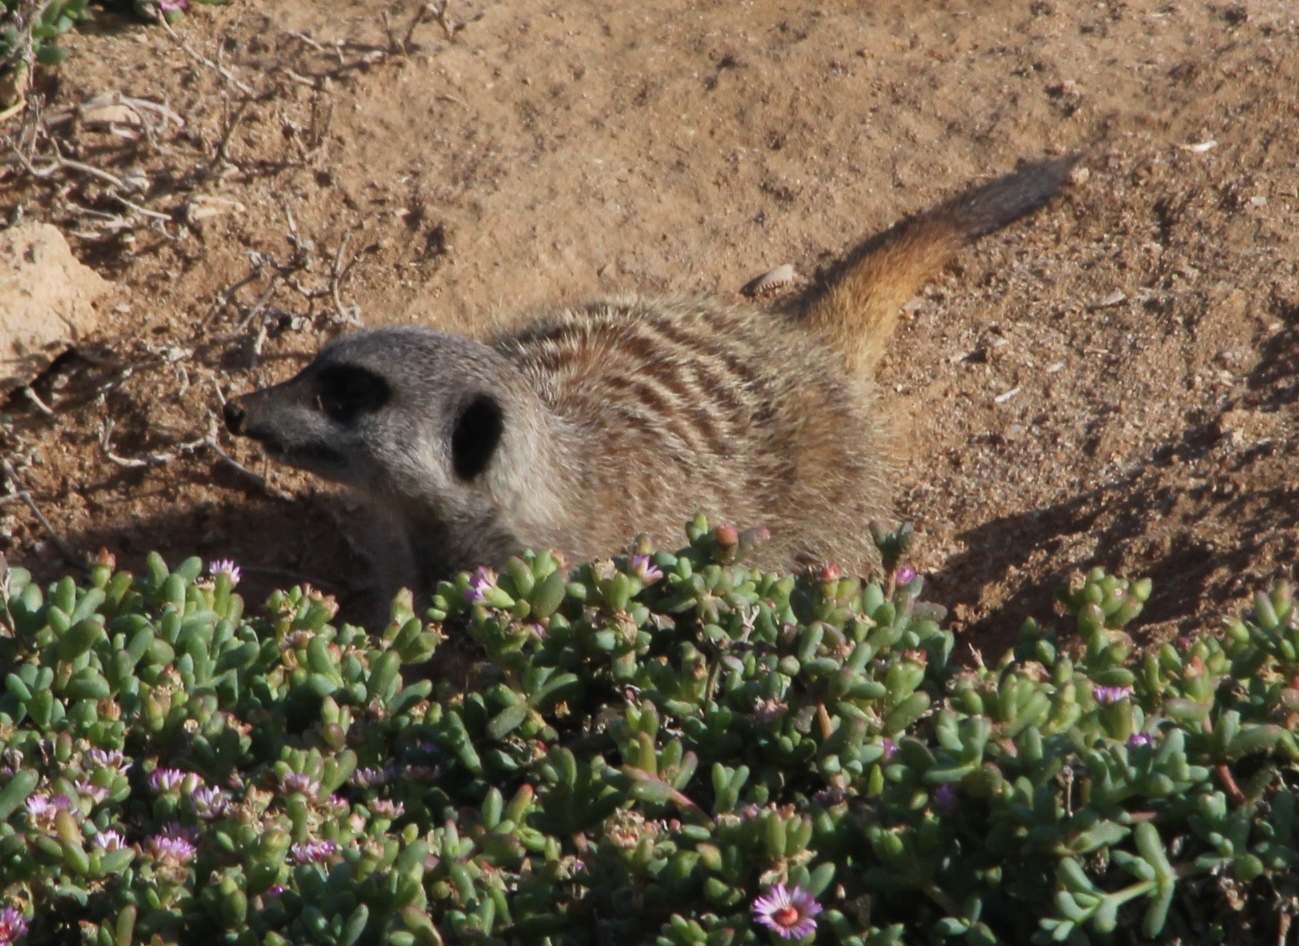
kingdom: Animalia
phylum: Chordata
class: Mammalia
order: Carnivora
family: Herpestidae
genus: Suricata
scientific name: Suricata suricatta
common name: Meerkat
